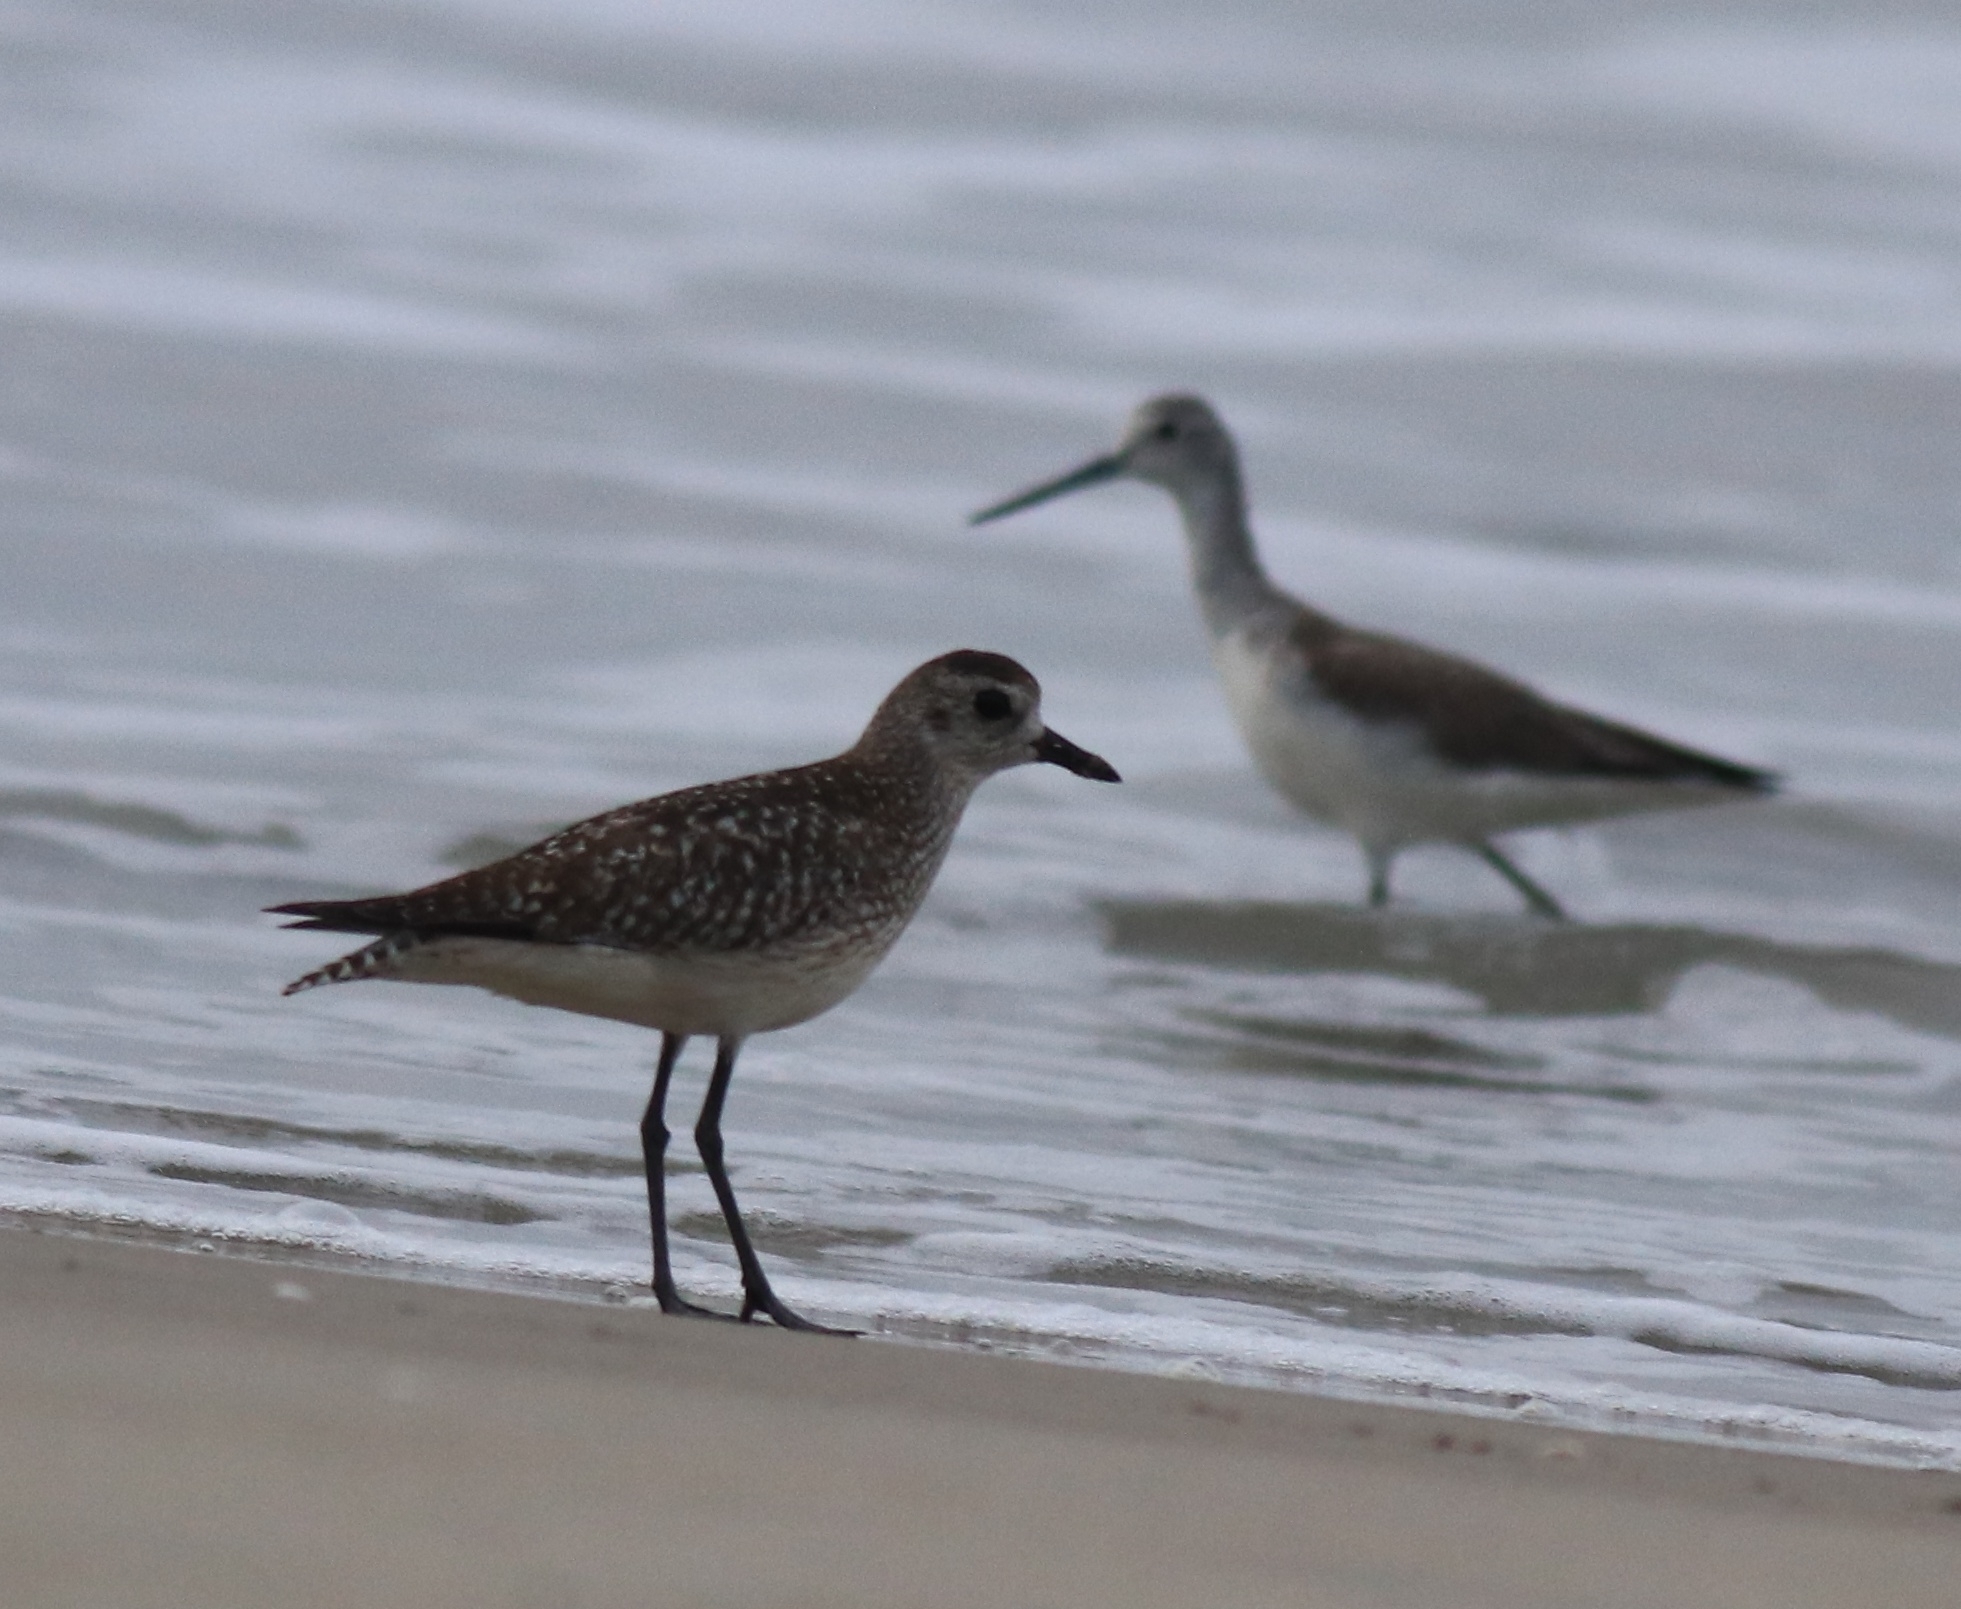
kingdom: Animalia
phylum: Chordata
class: Aves
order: Charadriiformes
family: Charadriidae
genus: Pluvialis
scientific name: Pluvialis squatarola
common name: Grey plover
